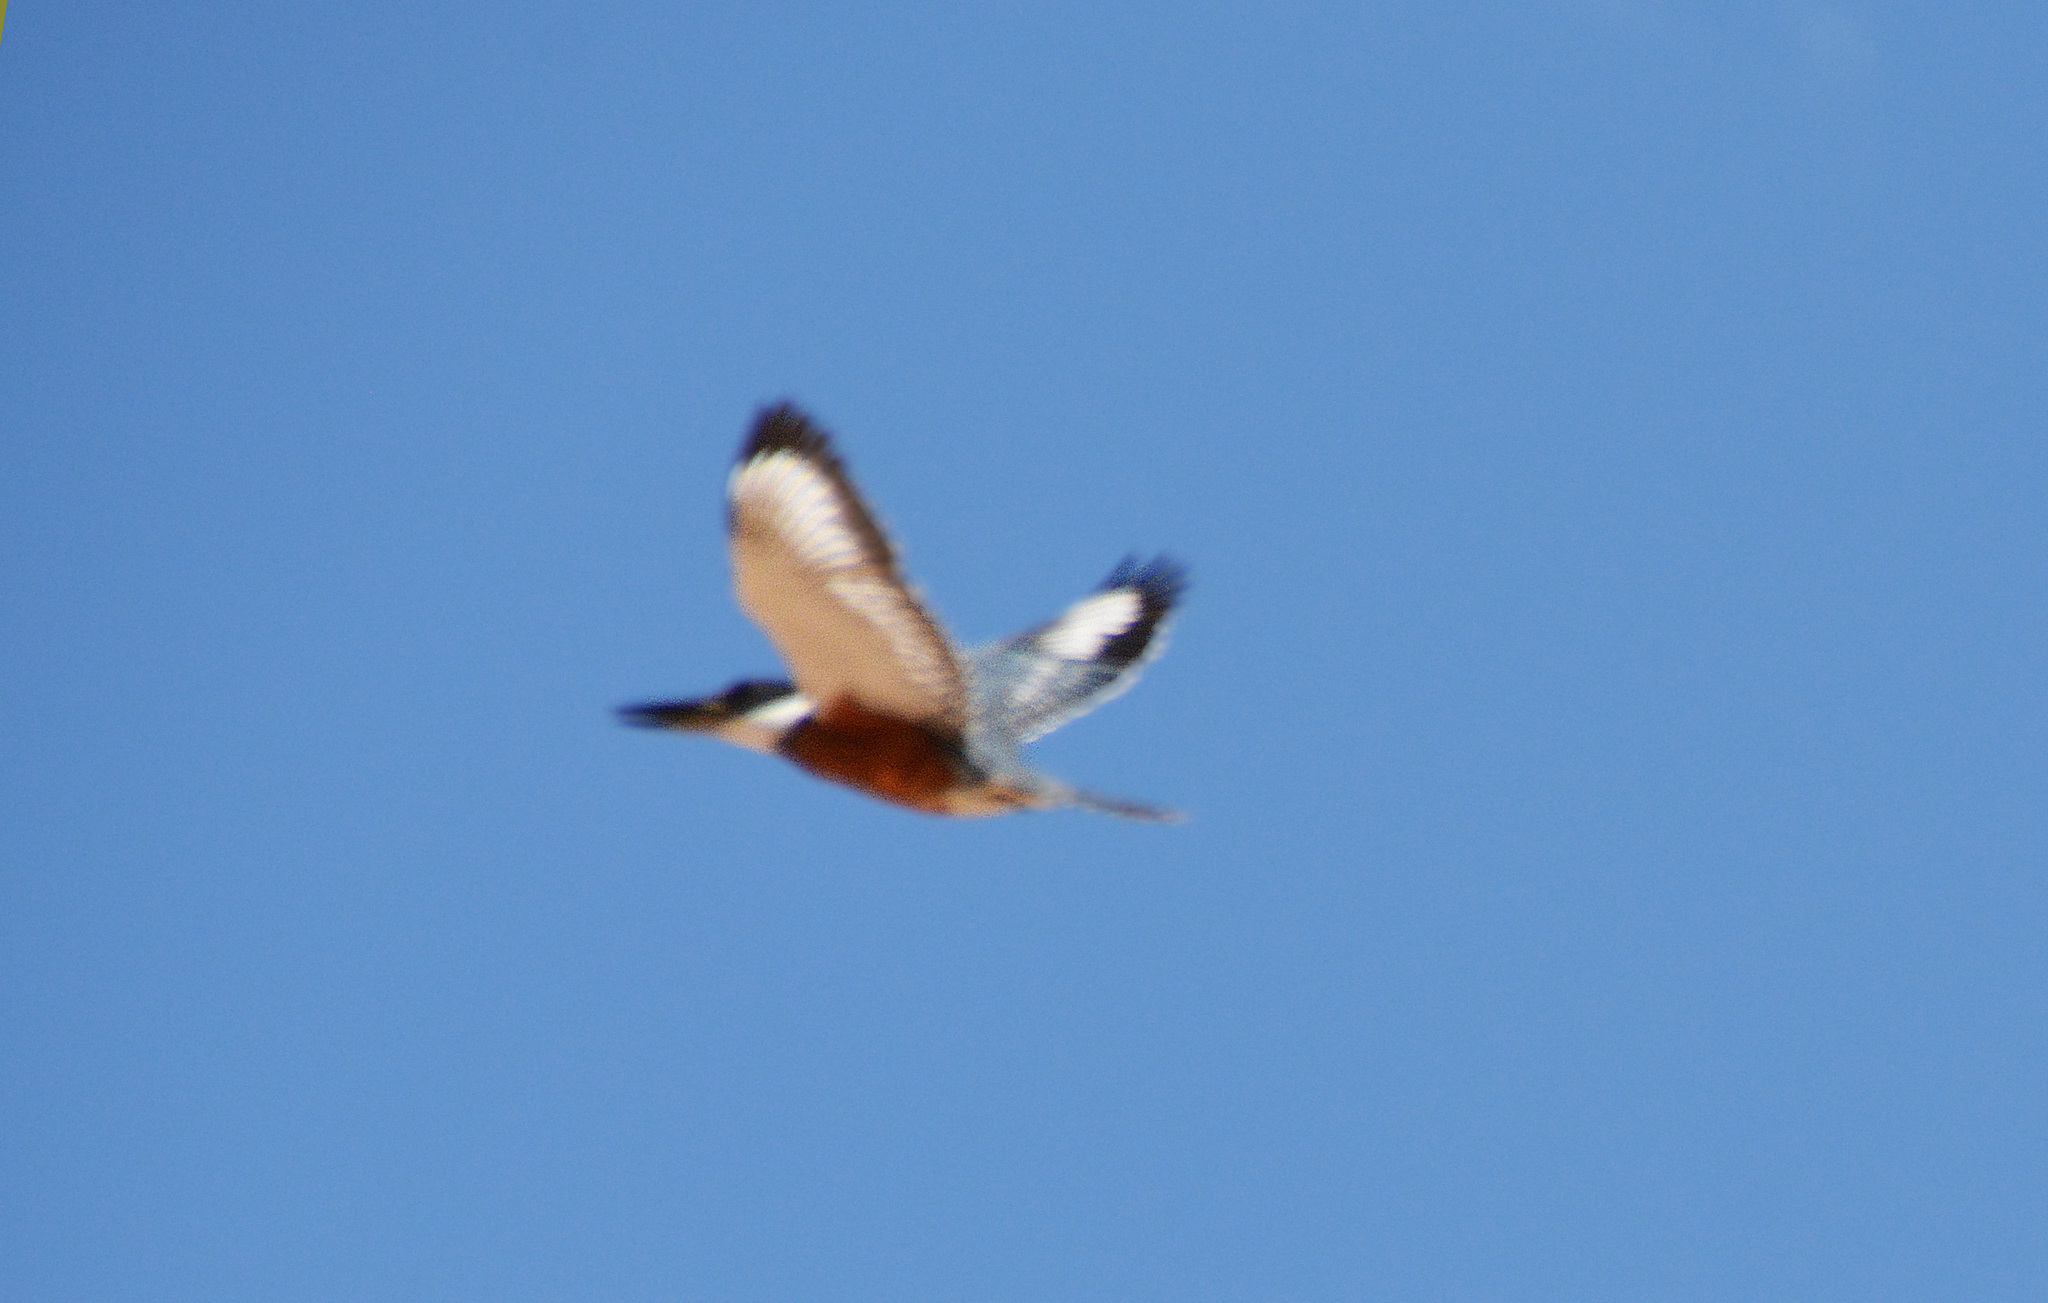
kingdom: Animalia
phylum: Chordata
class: Aves
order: Coraciiformes
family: Alcedinidae
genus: Megaceryle
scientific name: Megaceryle torquata
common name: Ringed kingfisher
